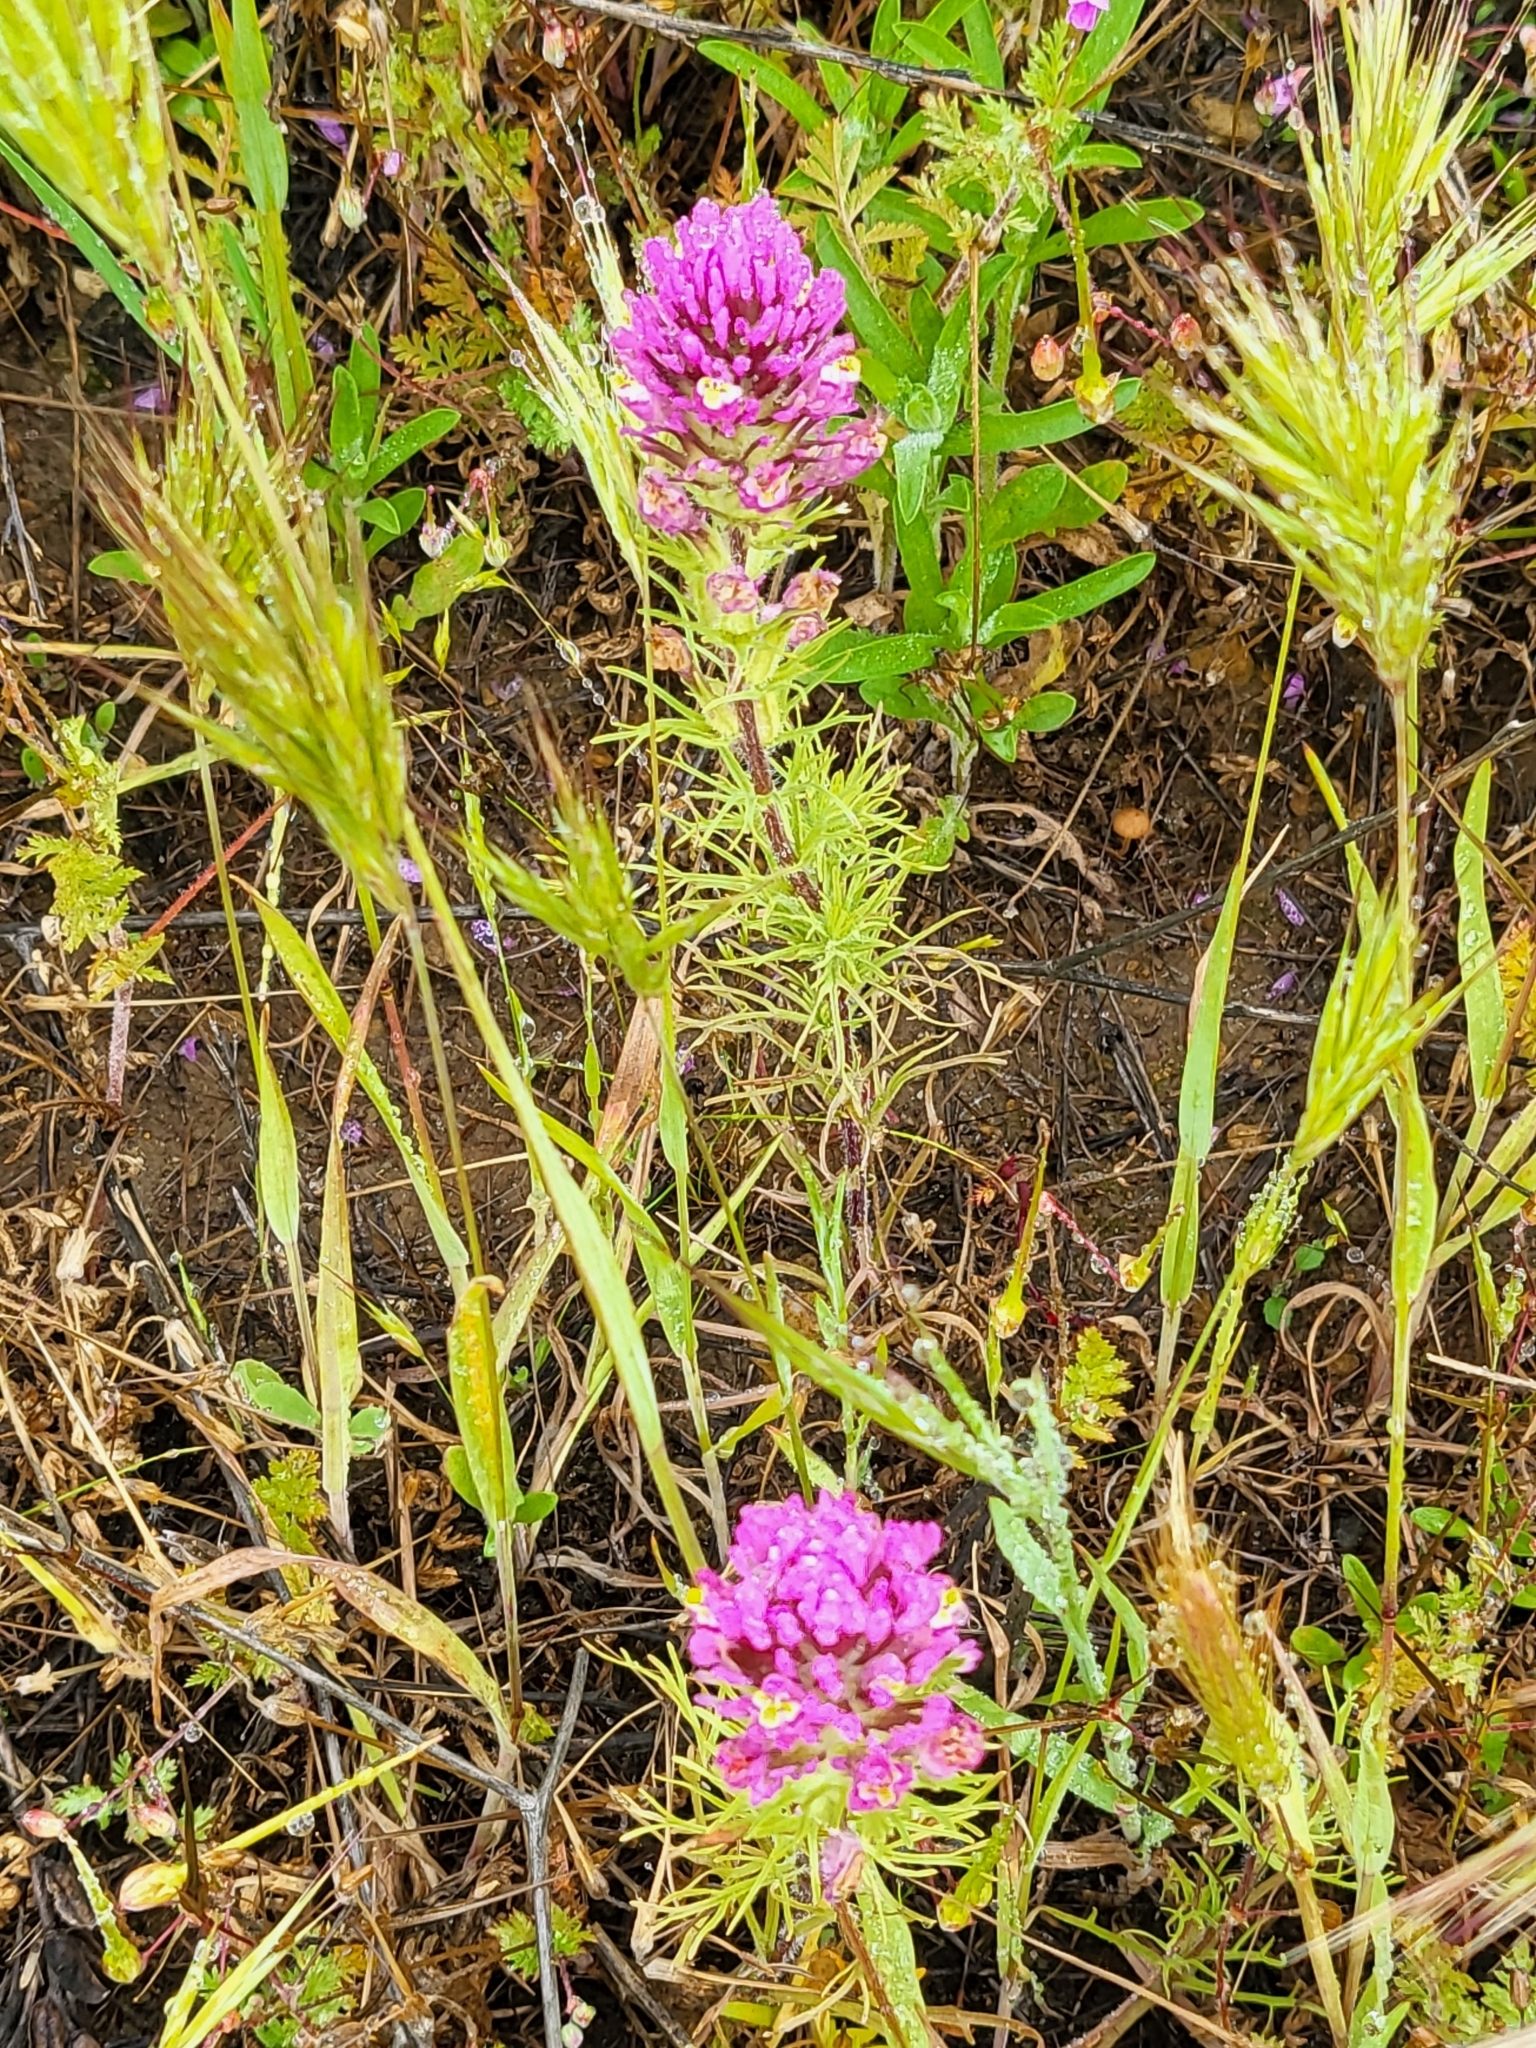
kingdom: Plantae
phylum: Tracheophyta
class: Magnoliopsida
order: Lamiales
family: Orobanchaceae
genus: Castilleja
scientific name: Castilleja exserta
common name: Purple owl-clover
